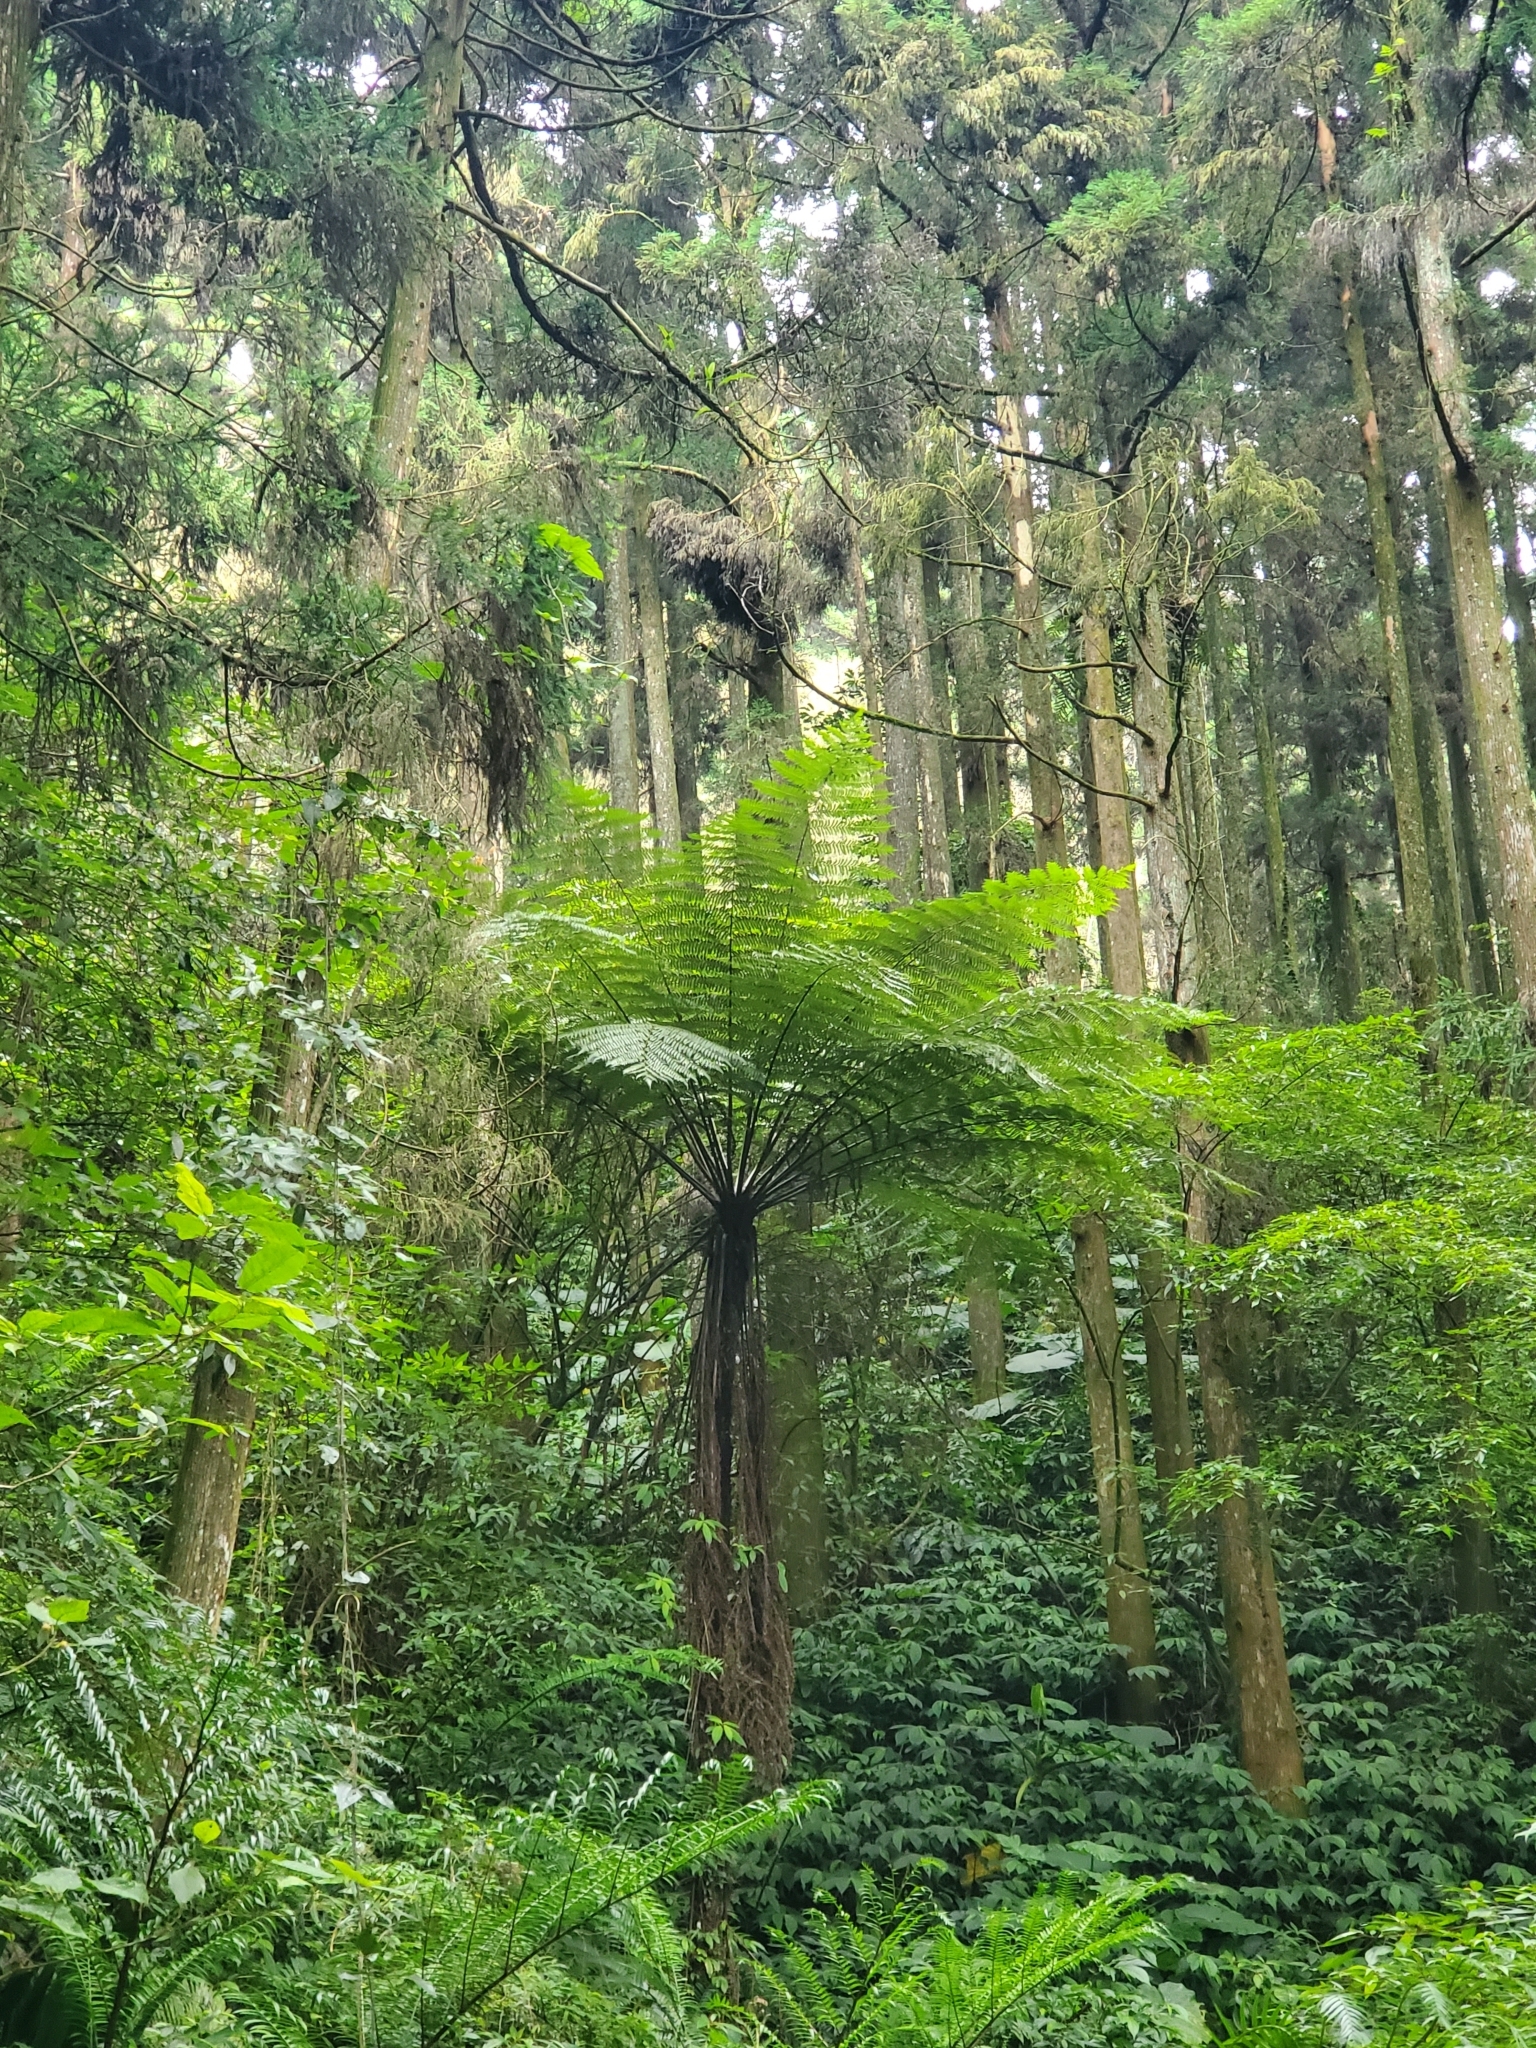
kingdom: Plantae
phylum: Tracheophyta
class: Polypodiopsida
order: Cyatheales
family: Cyatheaceae
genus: Alsophila
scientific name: Alsophila spinulosa
